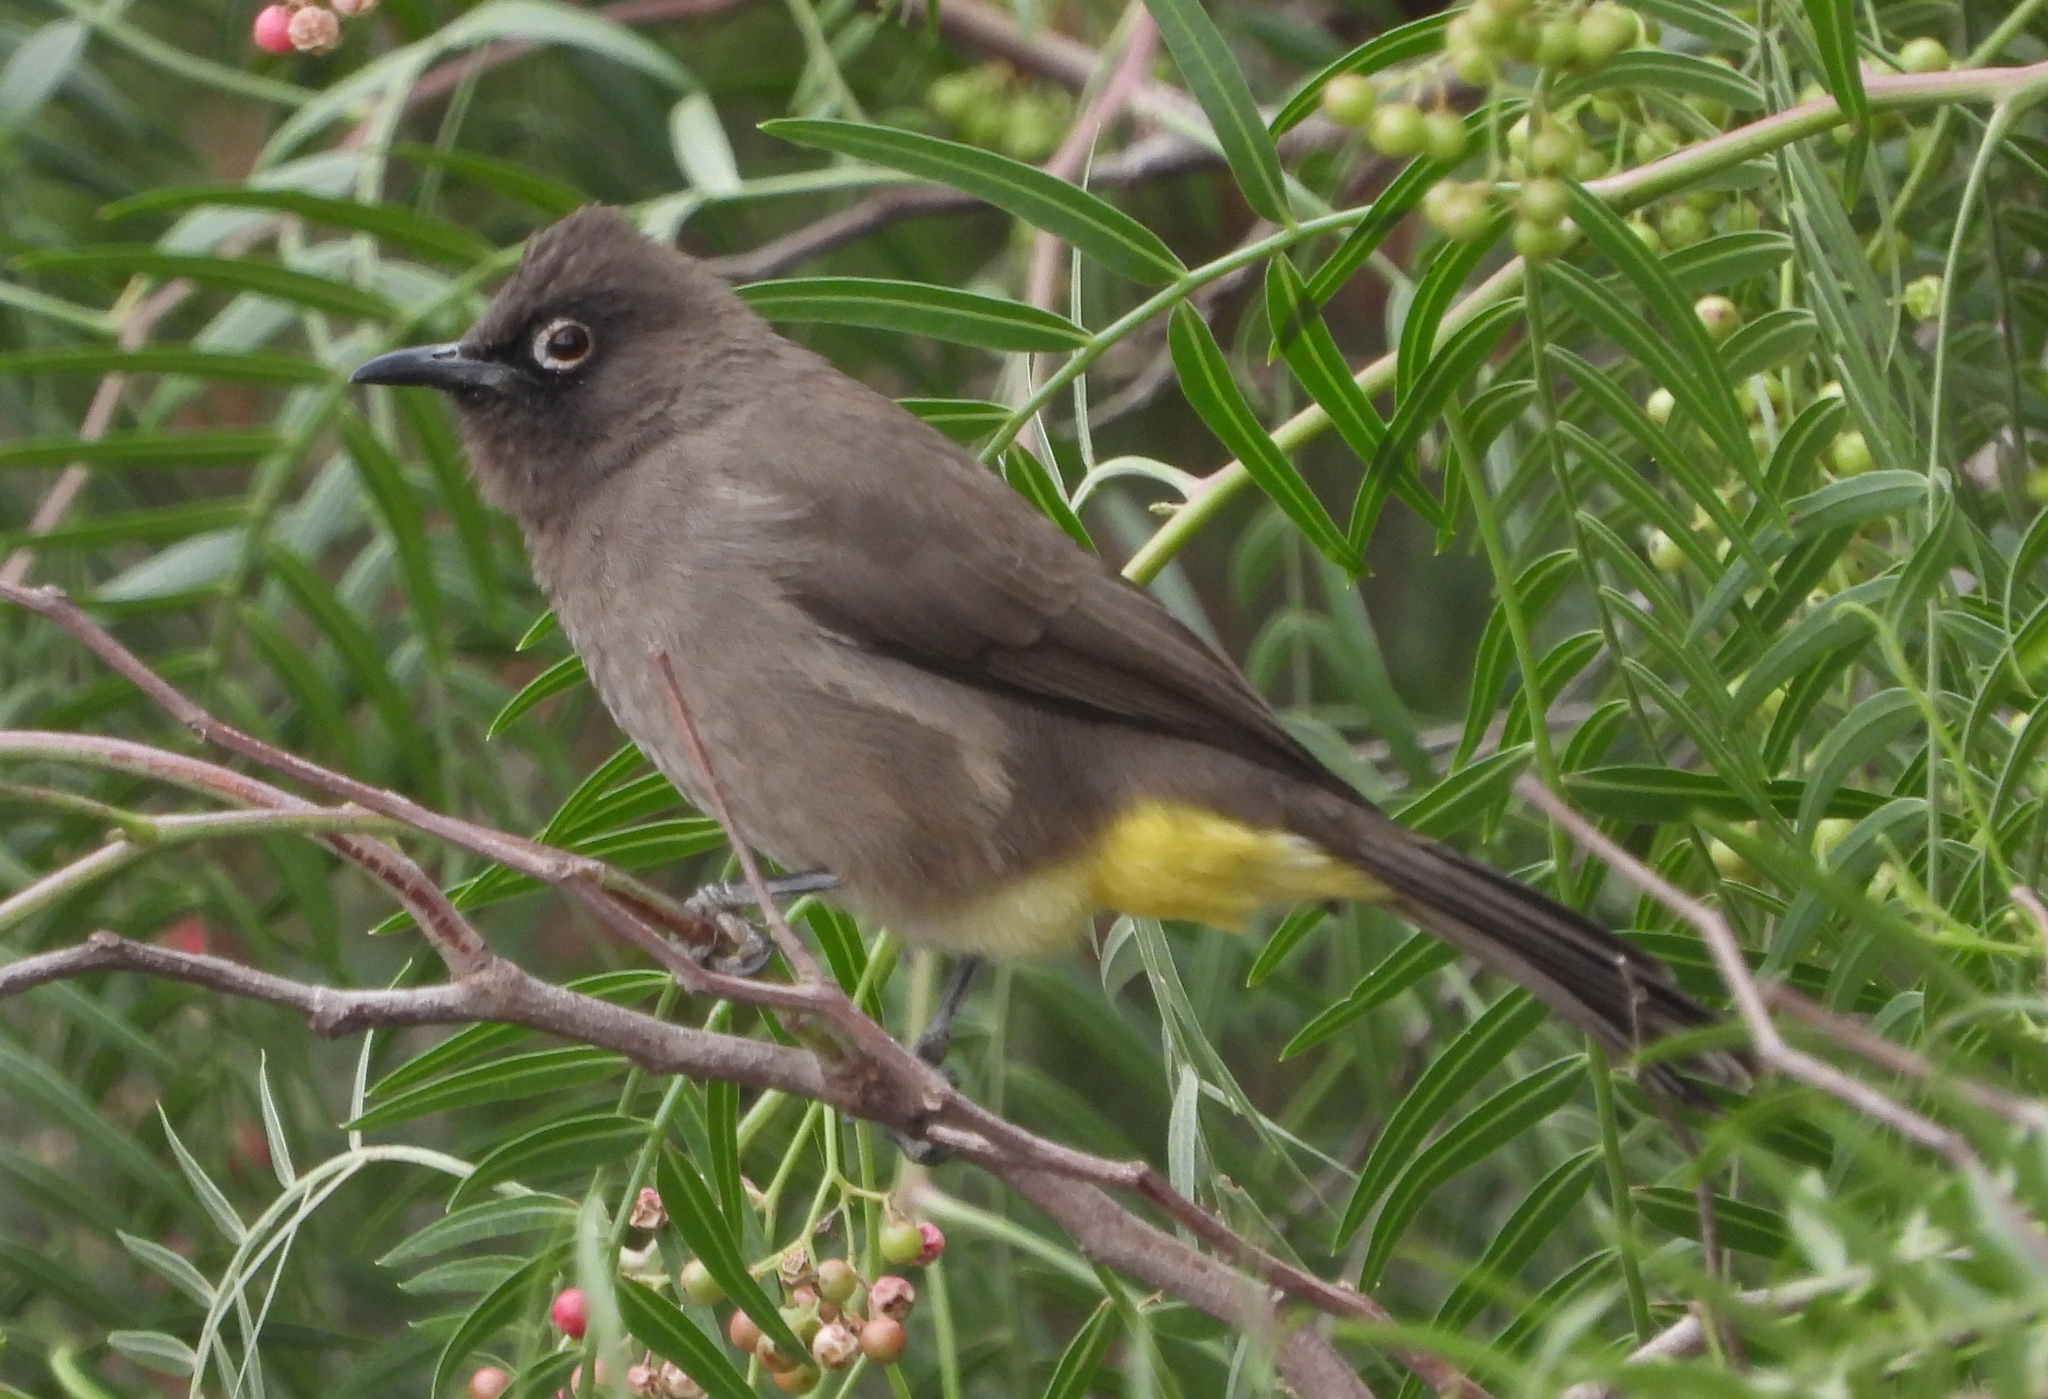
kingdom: Animalia
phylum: Chordata
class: Aves
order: Passeriformes
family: Pycnonotidae
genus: Pycnonotus
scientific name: Pycnonotus capensis
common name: Cape bulbul
